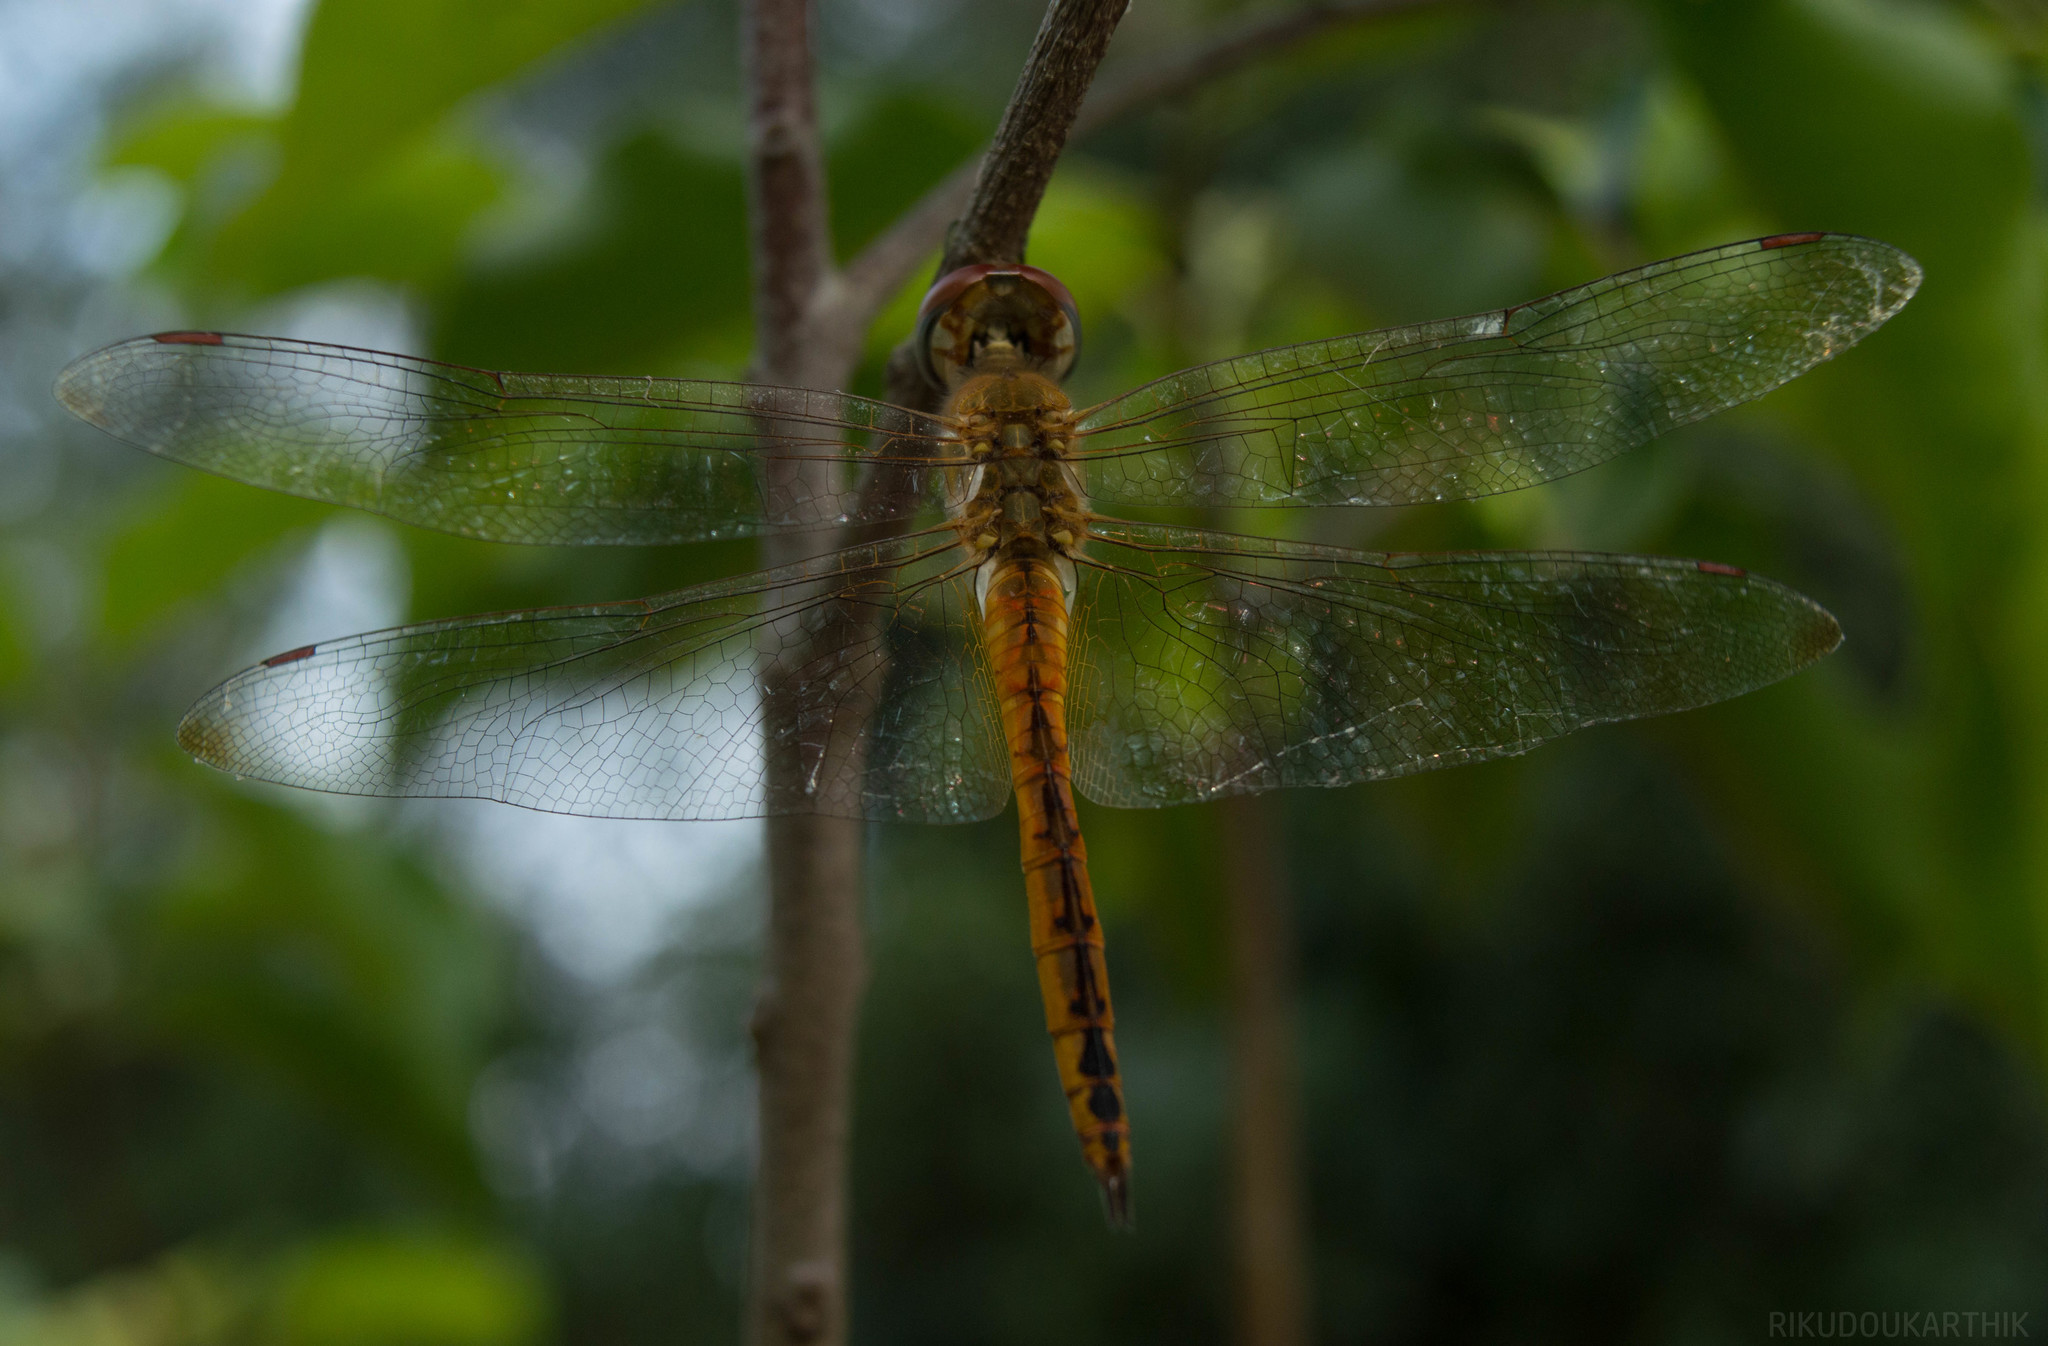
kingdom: Animalia
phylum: Arthropoda
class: Insecta
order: Odonata
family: Libellulidae
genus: Pantala
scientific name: Pantala flavescens
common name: Wandering glider
